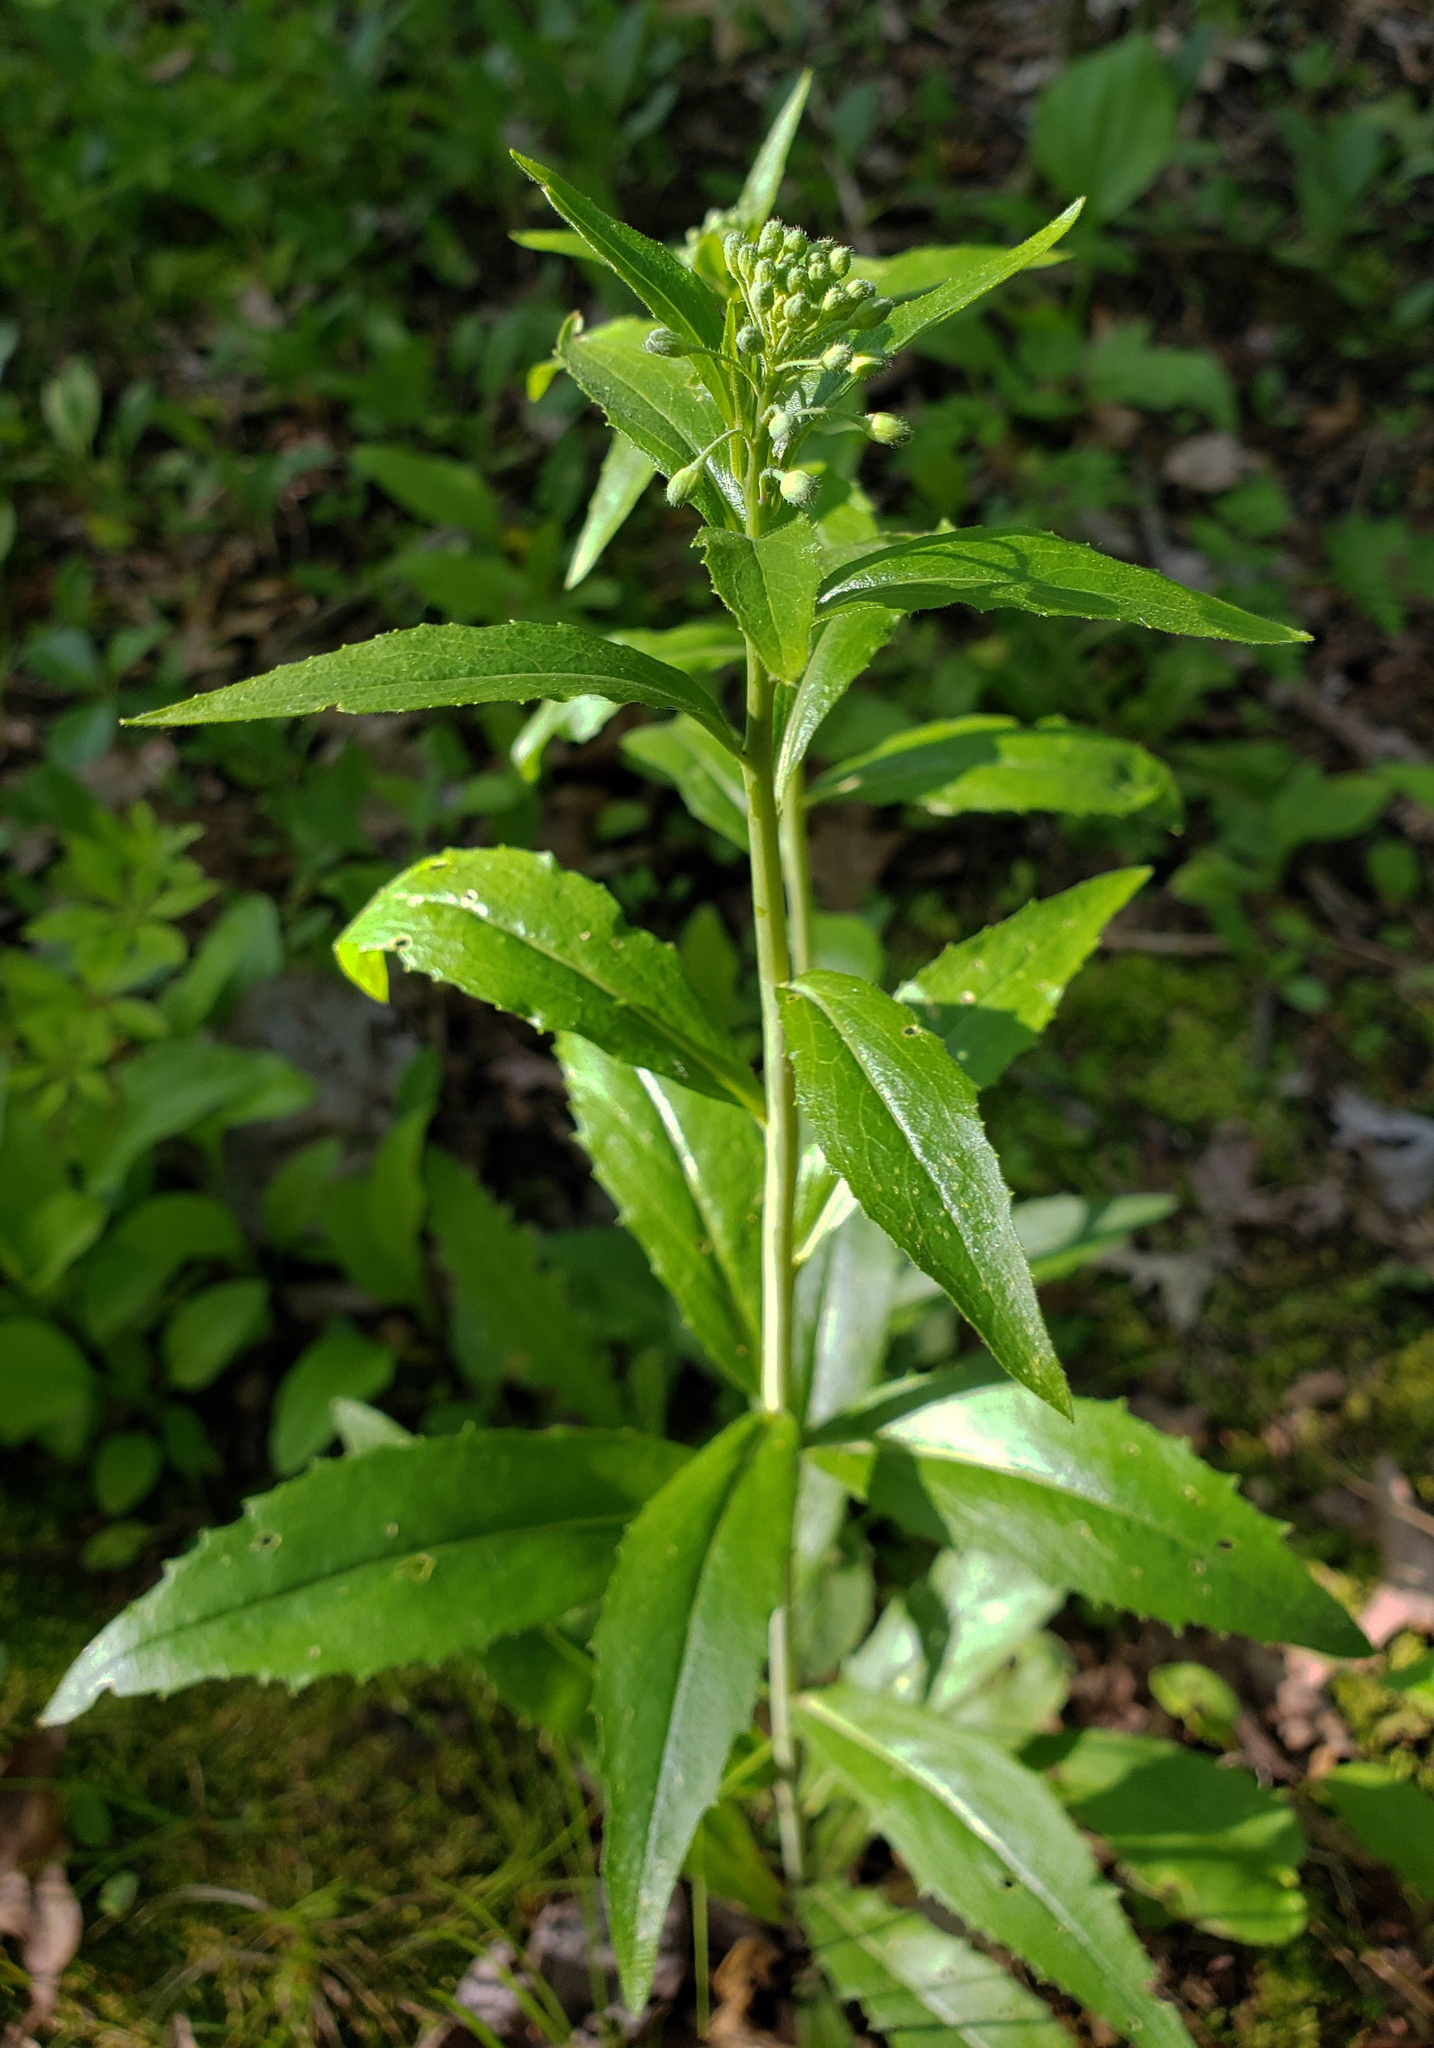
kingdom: Plantae
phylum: Tracheophyta
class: Magnoliopsida
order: Brassicales
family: Brassicaceae
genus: Hesperis
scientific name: Hesperis matronalis
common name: Dame's-violet
